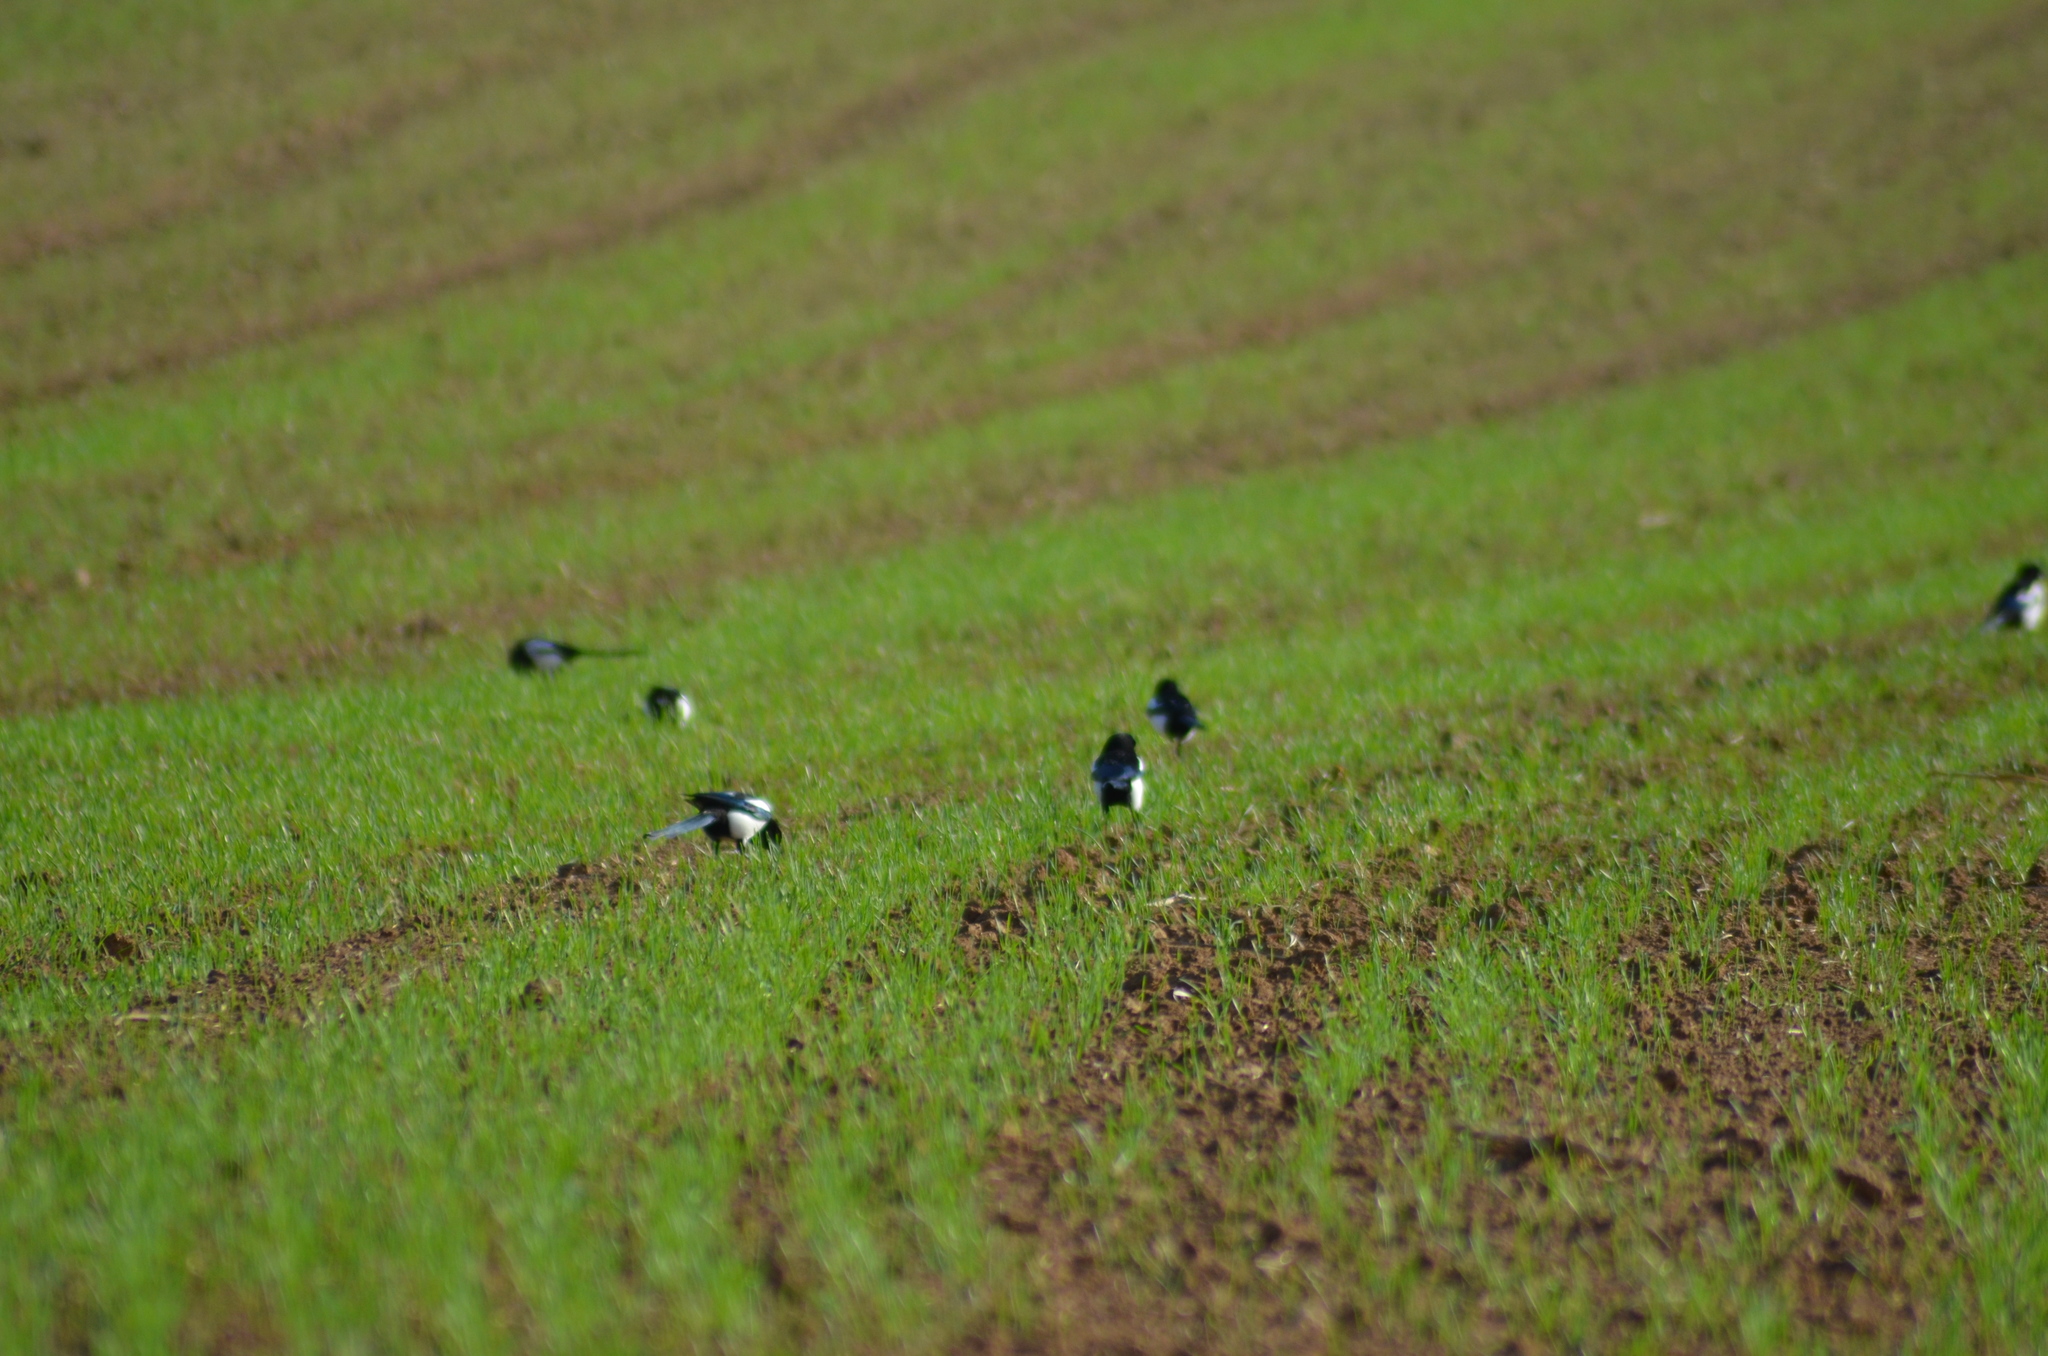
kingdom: Animalia
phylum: Chordata
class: Aves
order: Passeriformes
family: Corvidae
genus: Pica
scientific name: Pica pica
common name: Eurasian magpie
